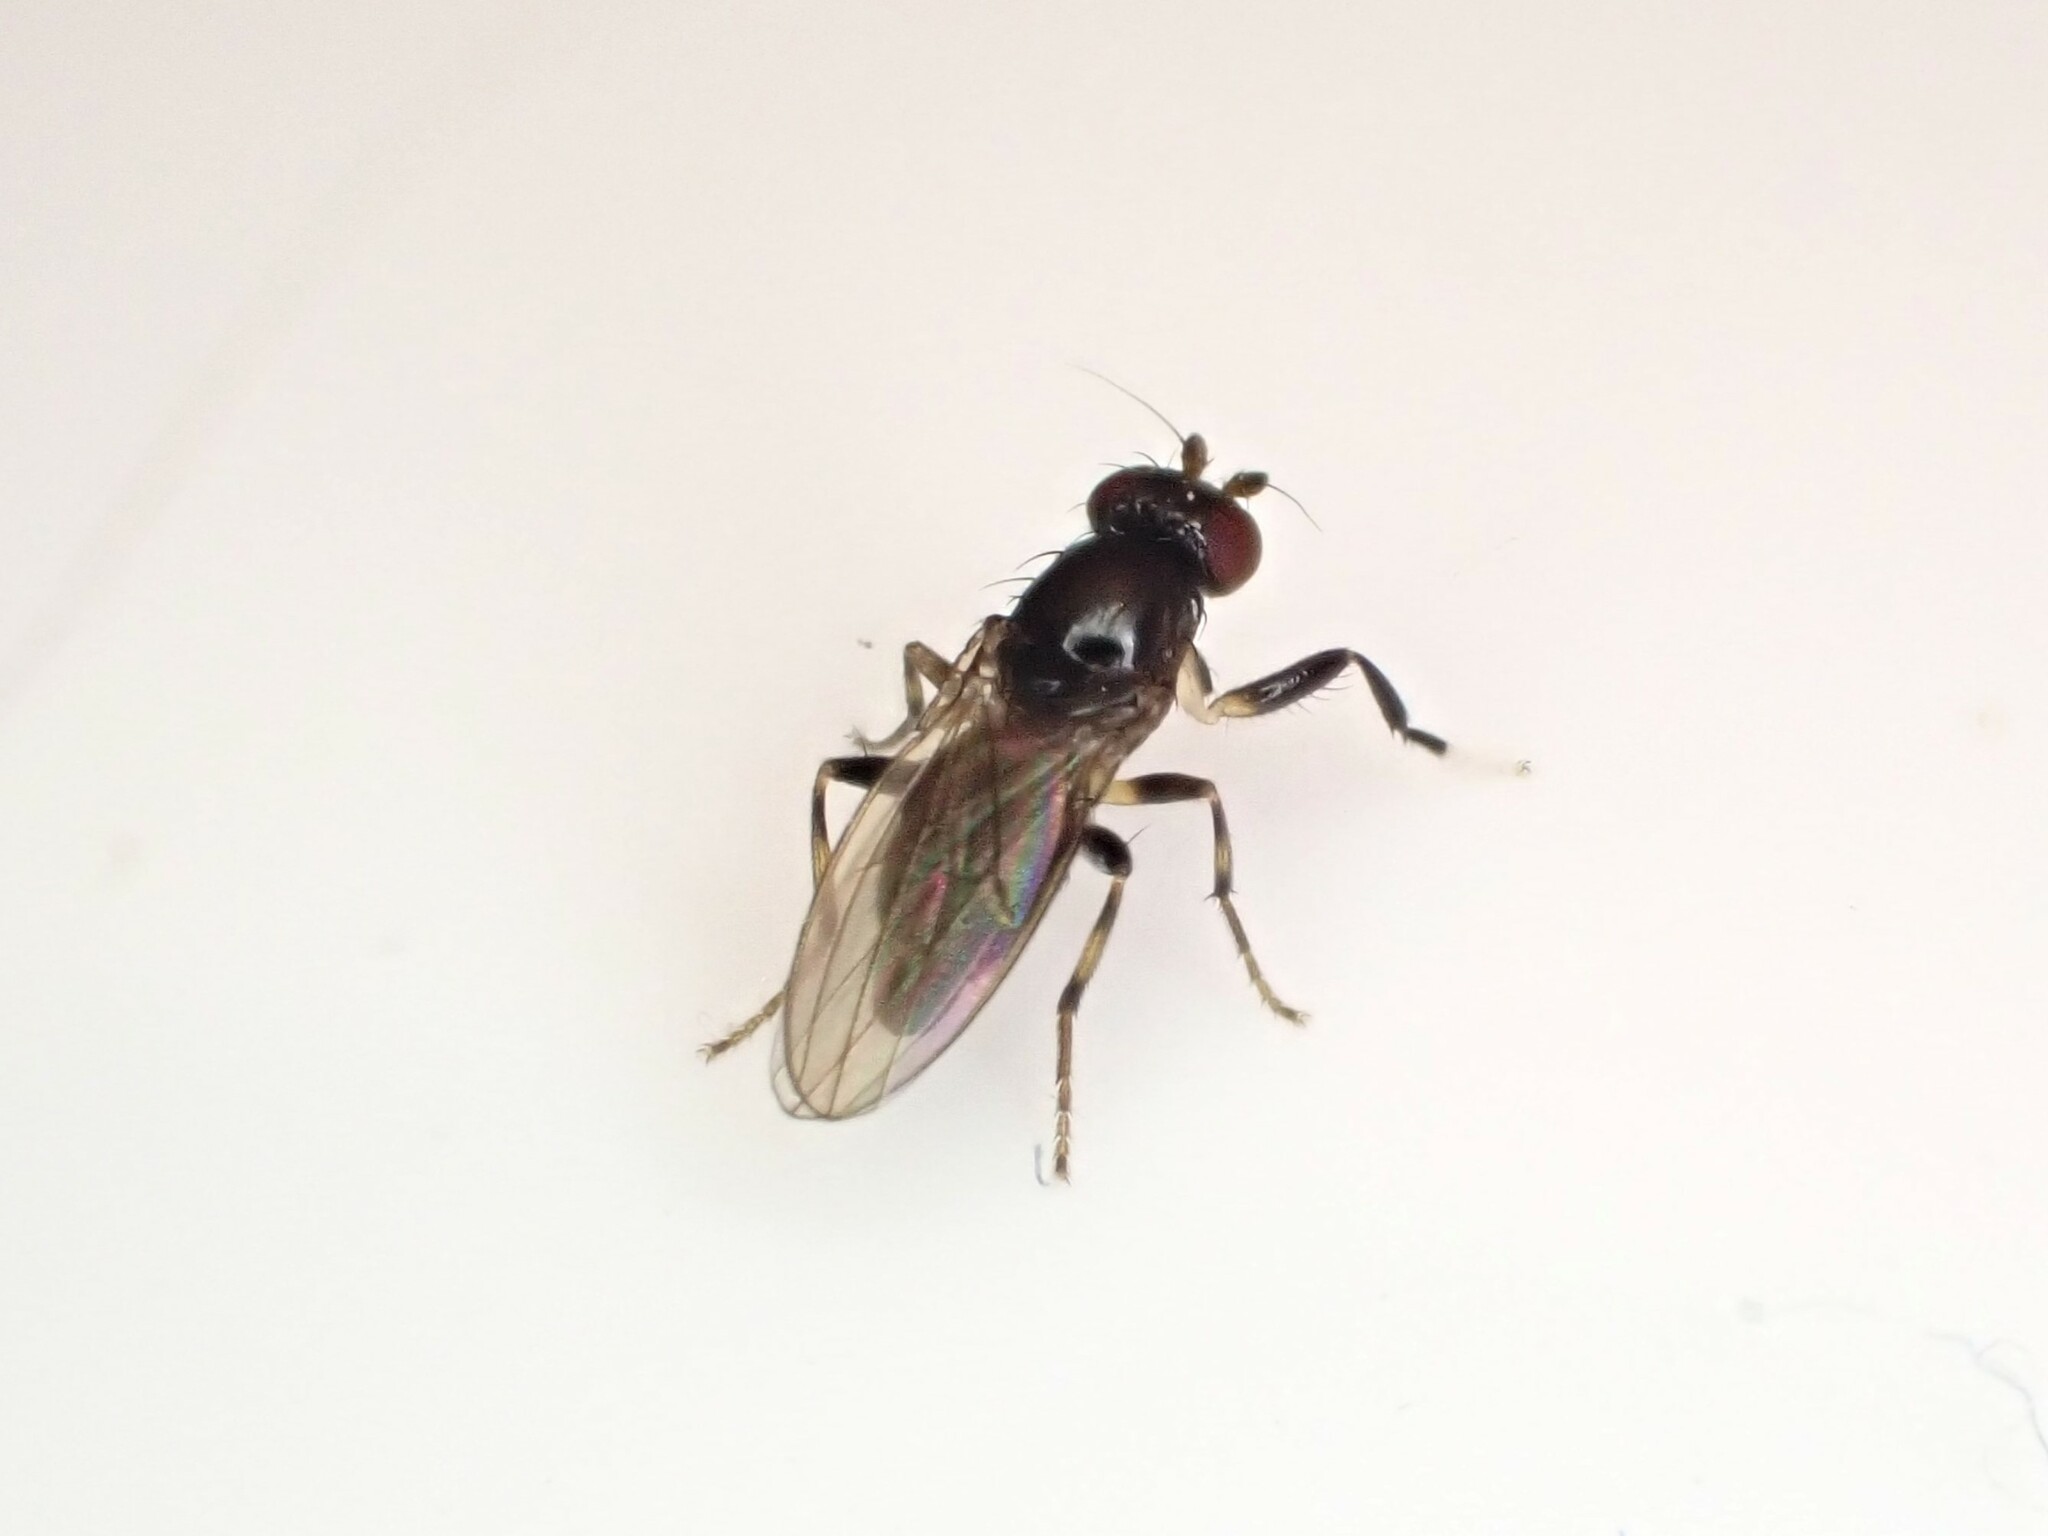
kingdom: Animalia
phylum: Arthropoda
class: Insecta
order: Diptera
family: Cypselosomatidae
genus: Pseudopomyza
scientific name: Pseudopomyza flavitarsis
